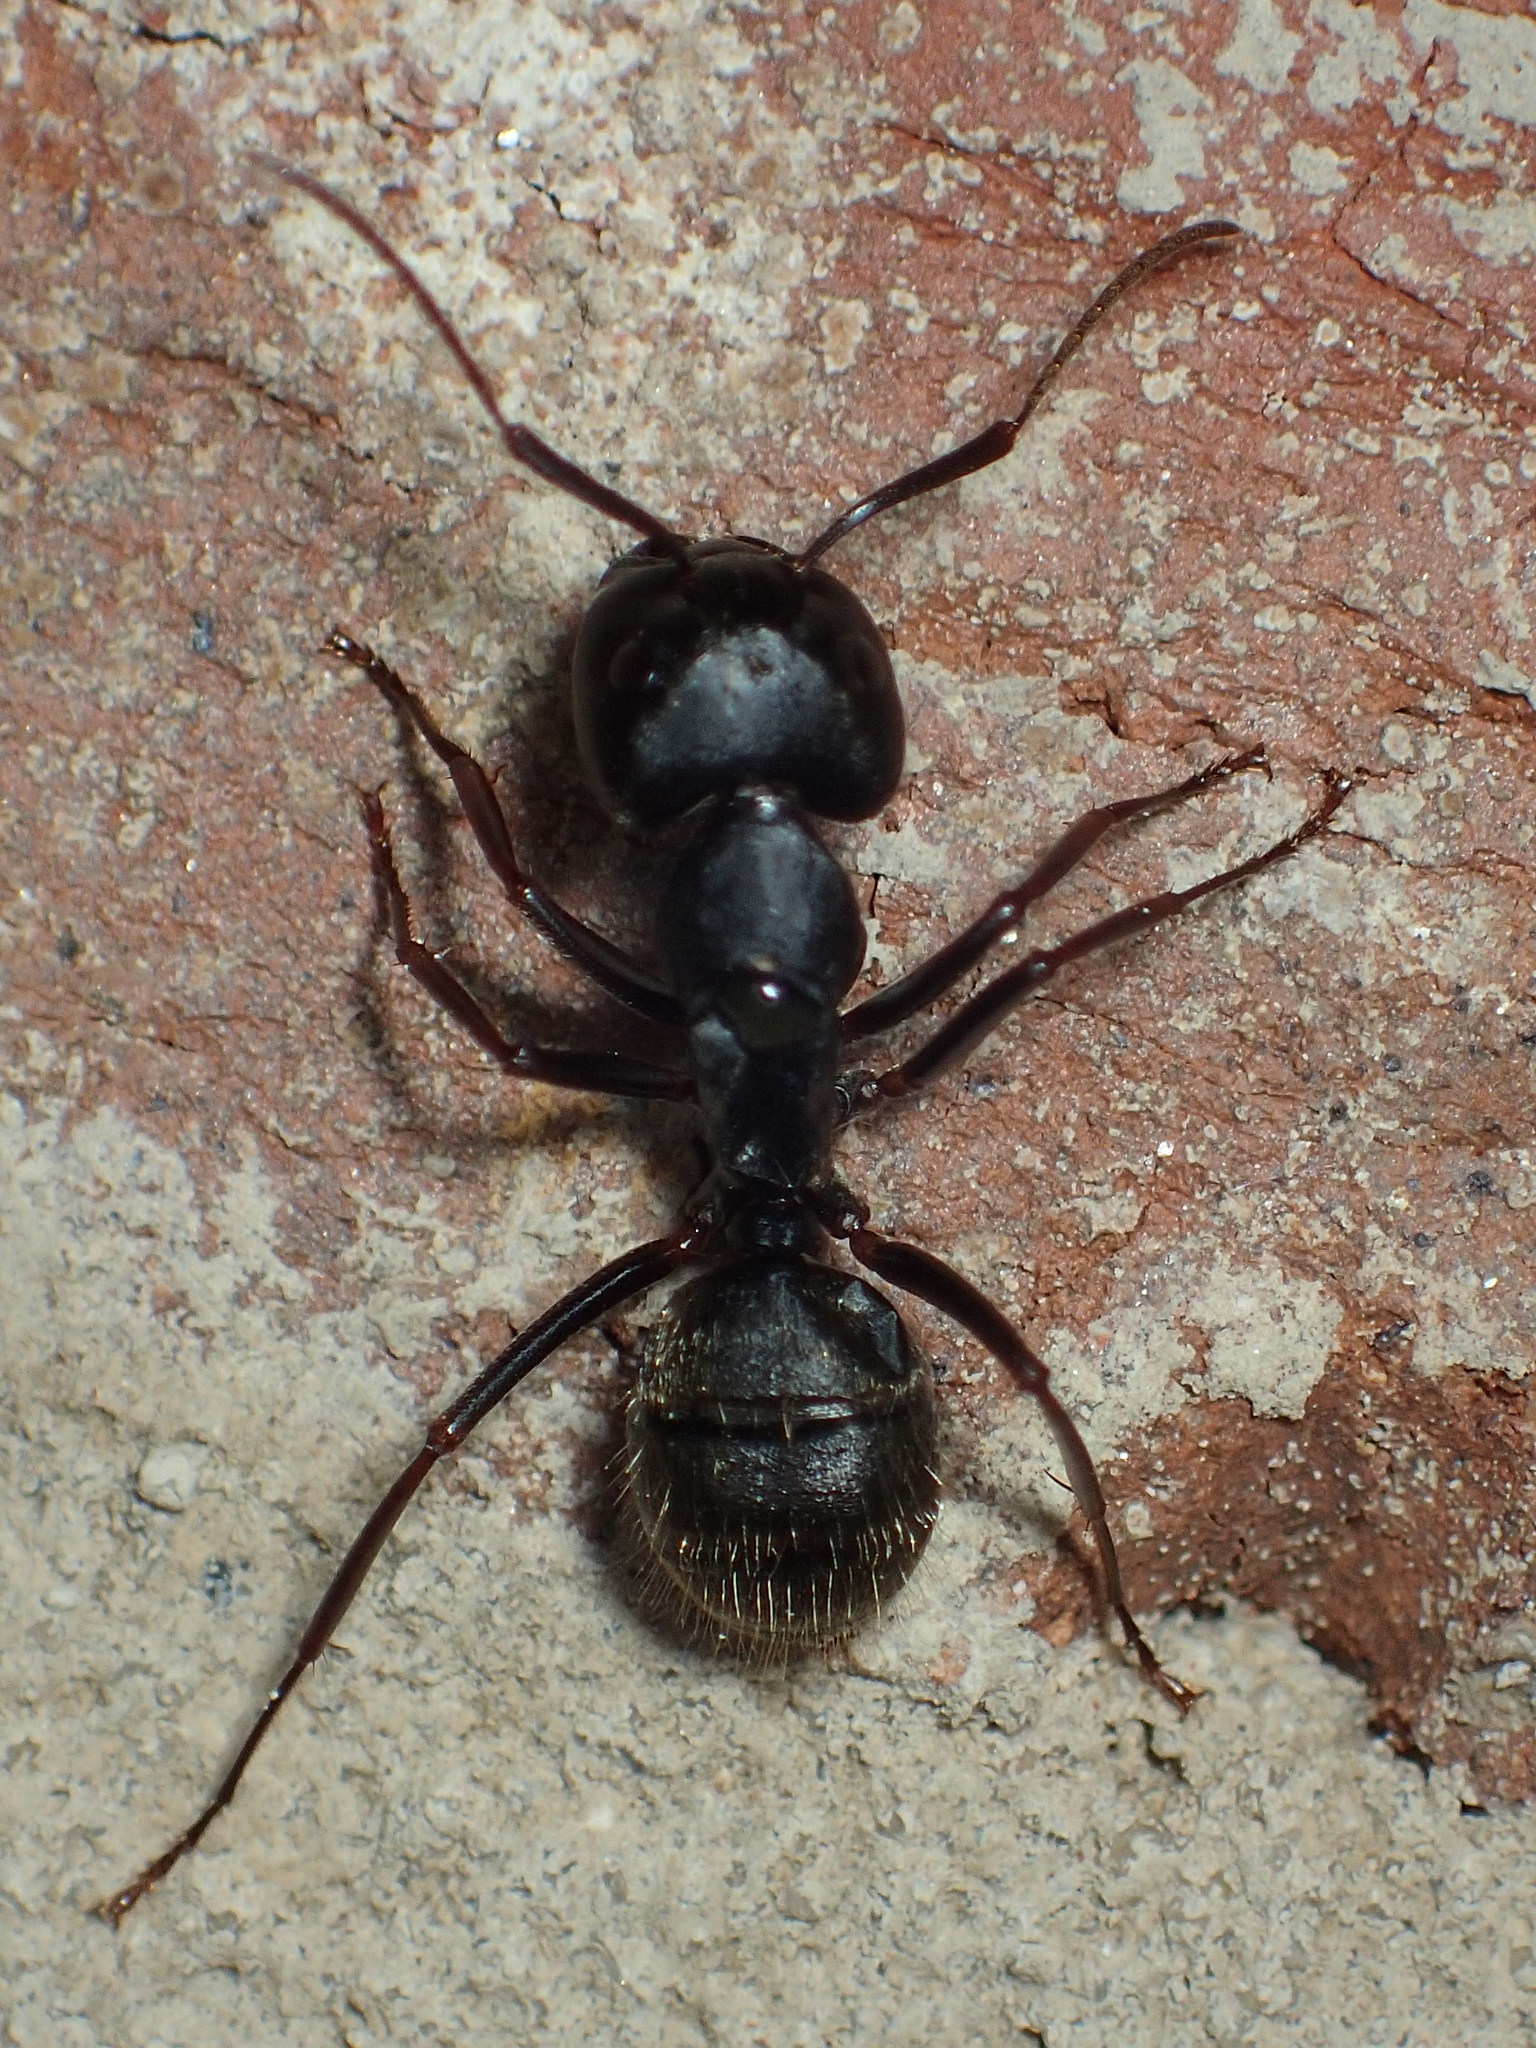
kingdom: Animalia
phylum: Arthropoda
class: Insecta
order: Hymenoptera
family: Formicidae
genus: Camponotus
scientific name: Camponotus pennsylvanicus
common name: Black carpenter ant
